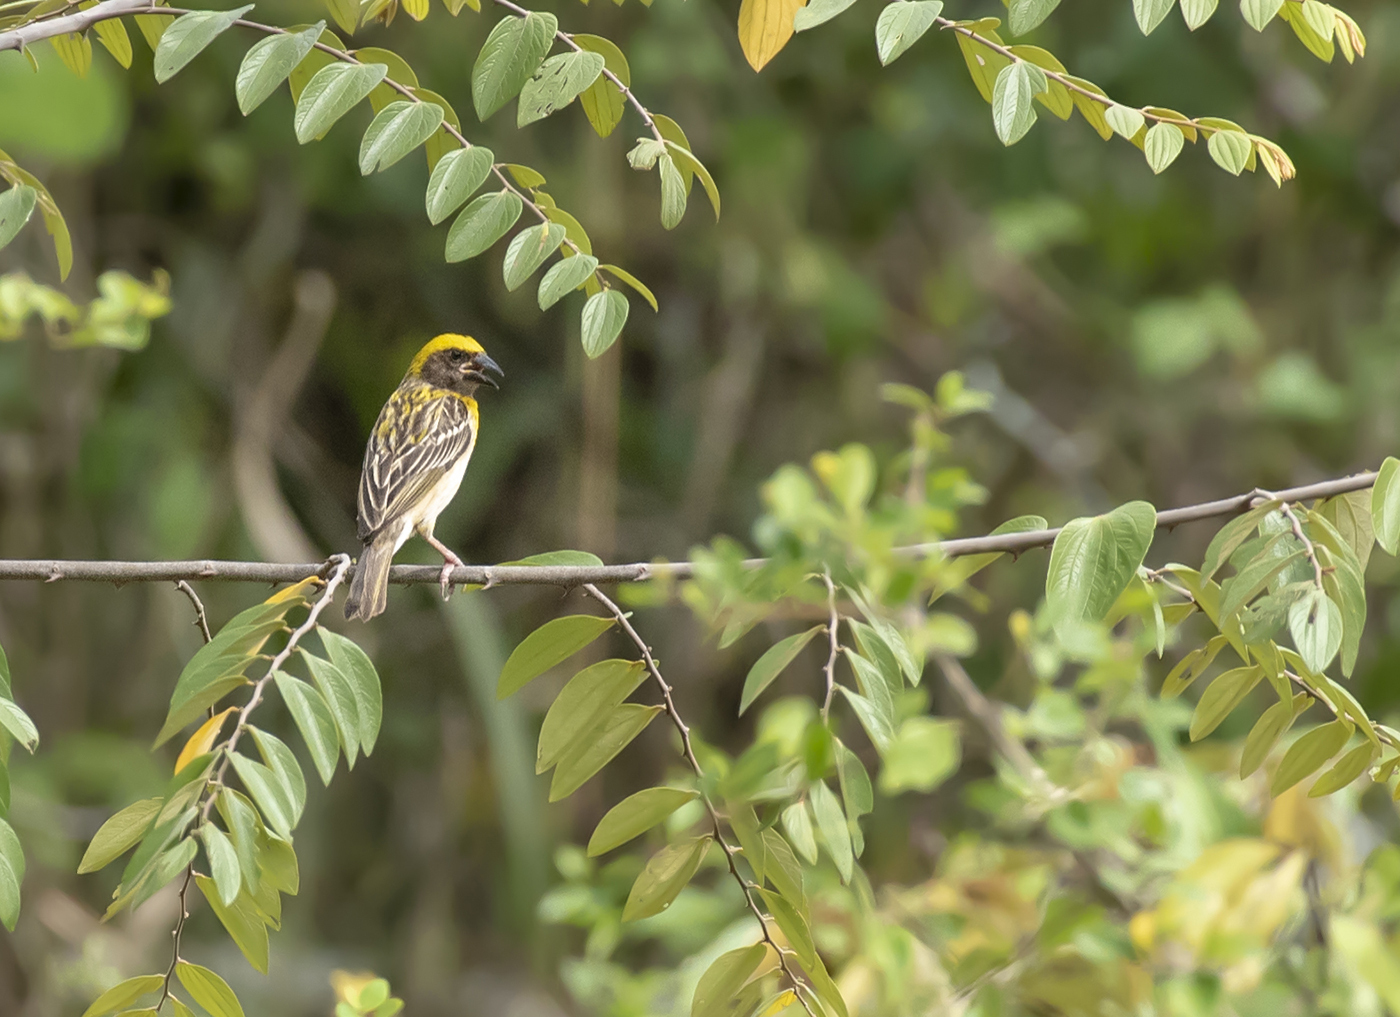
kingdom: Animalia
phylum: Chordata
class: Aves
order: Passeriformes
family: Ploceidae
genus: Ploceus
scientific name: Ploceus philippinus
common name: Baya weaver
